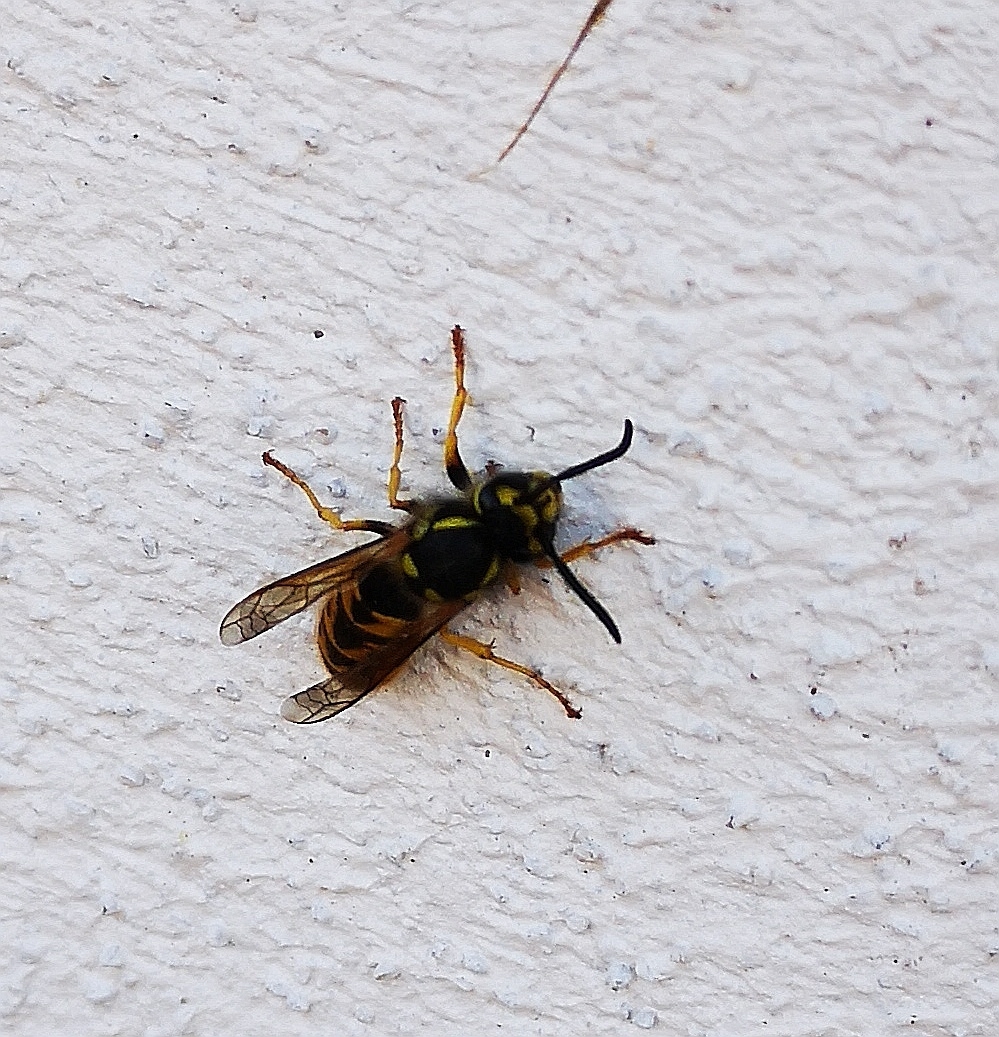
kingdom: Animalia
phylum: Arthropoda
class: Insecta
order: Hymenoptera
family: Vespidae
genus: Vespula
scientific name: Vespula vulgaris
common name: Common wasp
